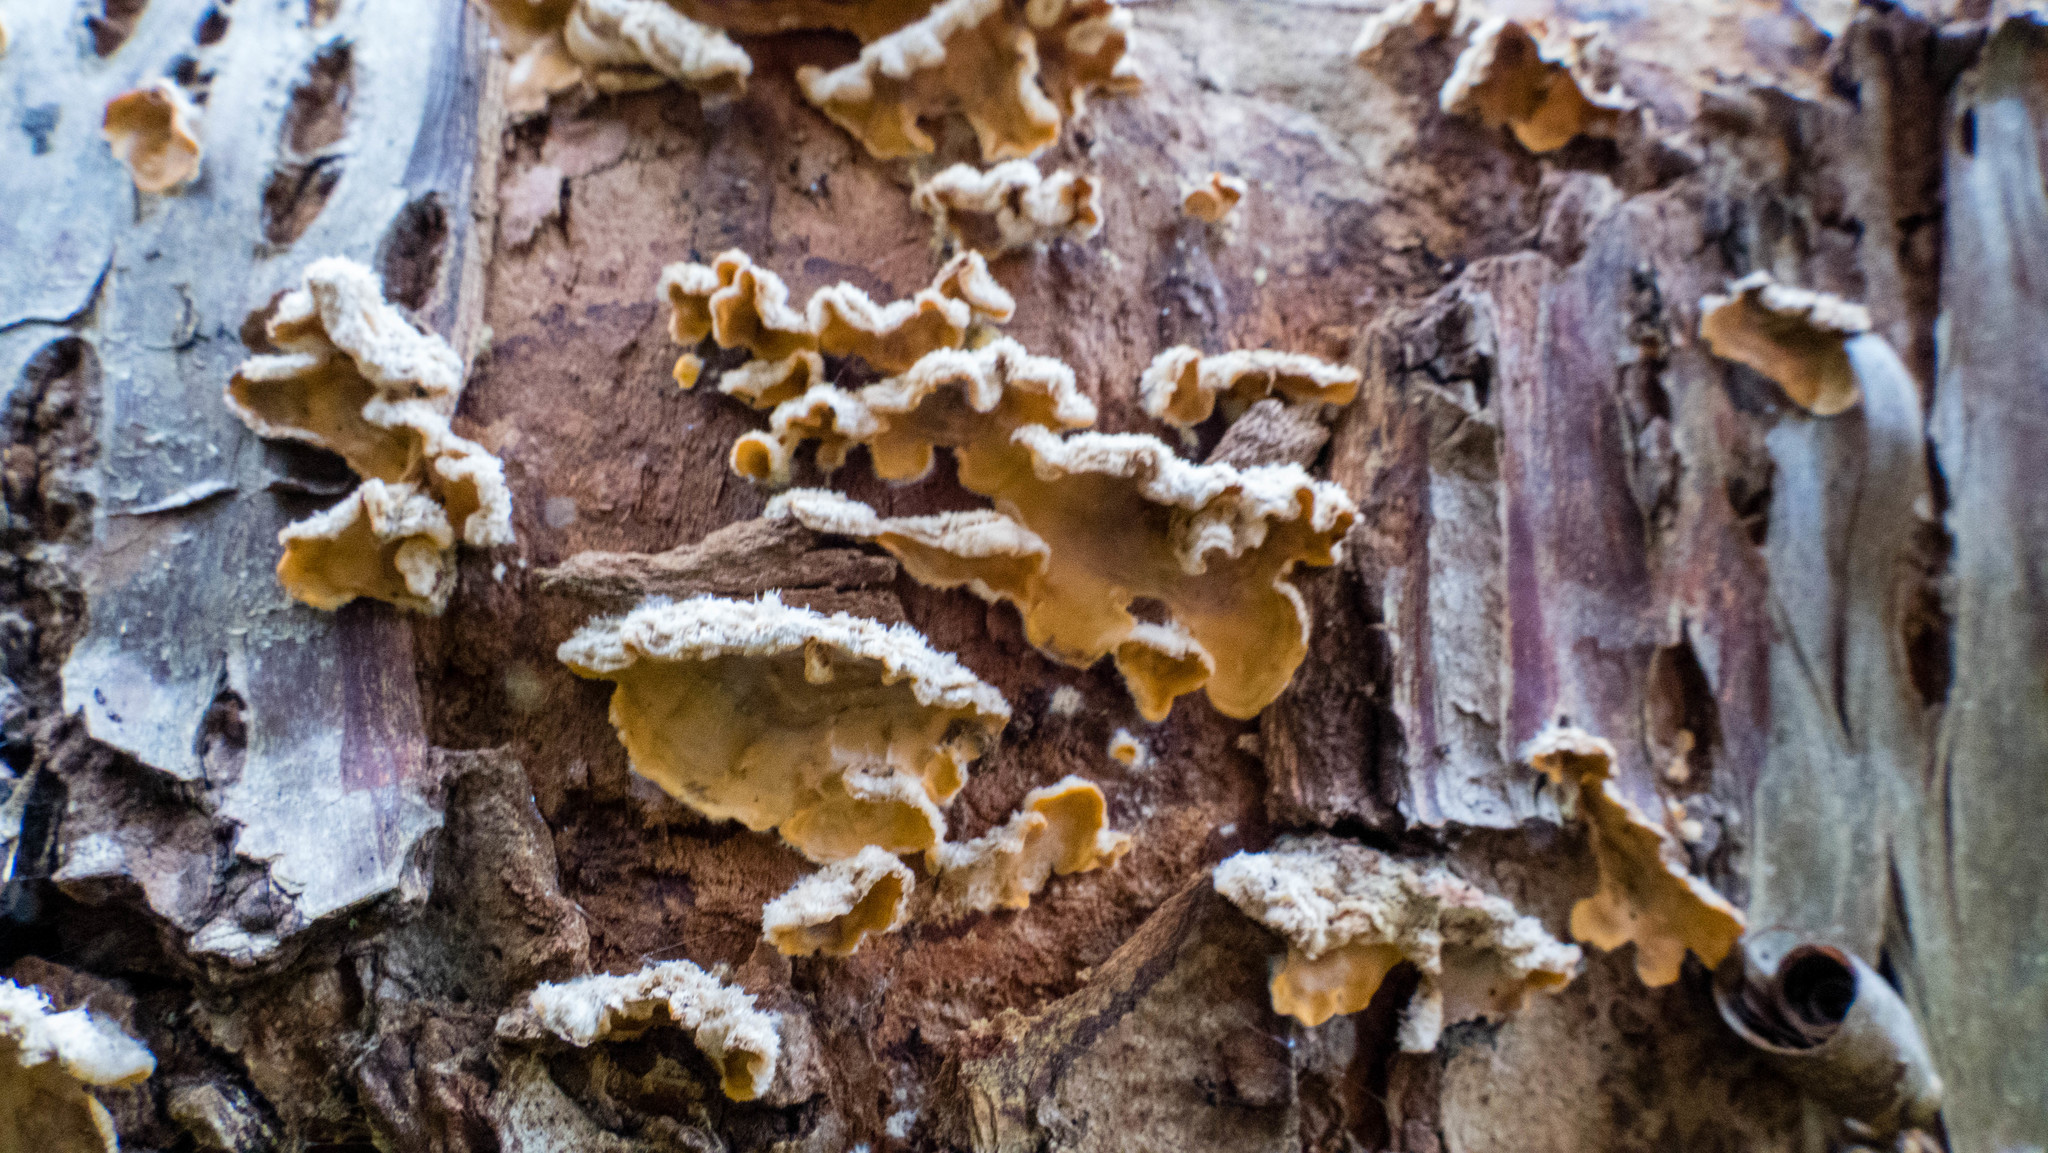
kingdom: Fungi
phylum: Basidiomycota
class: Agaricomycetes
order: Russulales
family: Stereaceae
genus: Stereum
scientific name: Stereum hirsutum
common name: Hairy curtain crust
